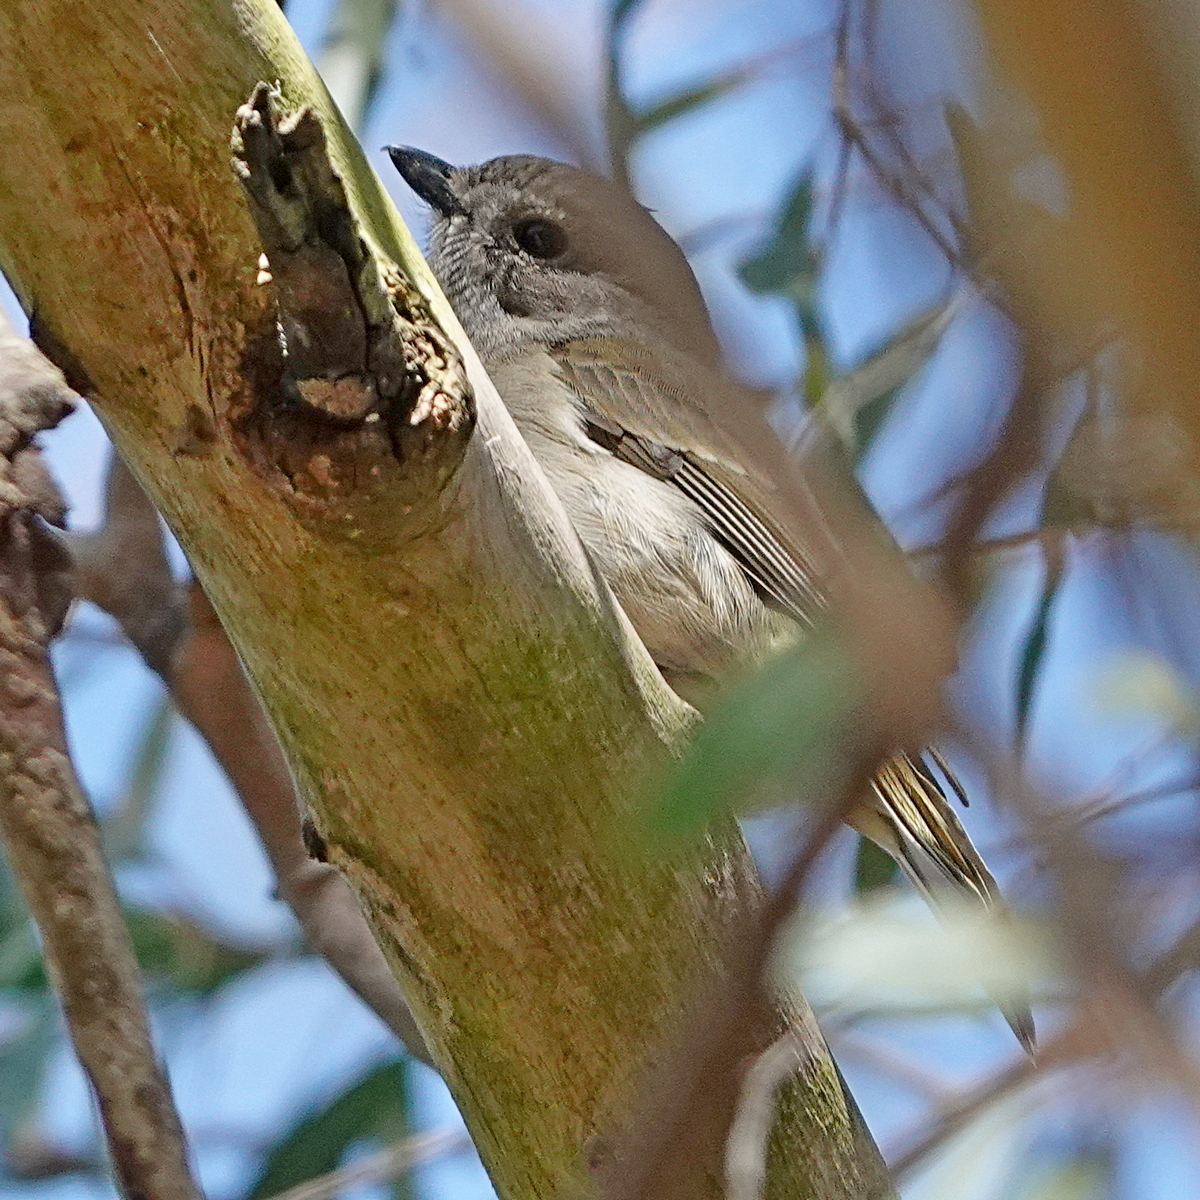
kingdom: Animalia
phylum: Chordata
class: Aves
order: Passeriformes
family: Pachycephalidae
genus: Pachycephala
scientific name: Pachycephala pectoralis
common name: Australian golden whistler
